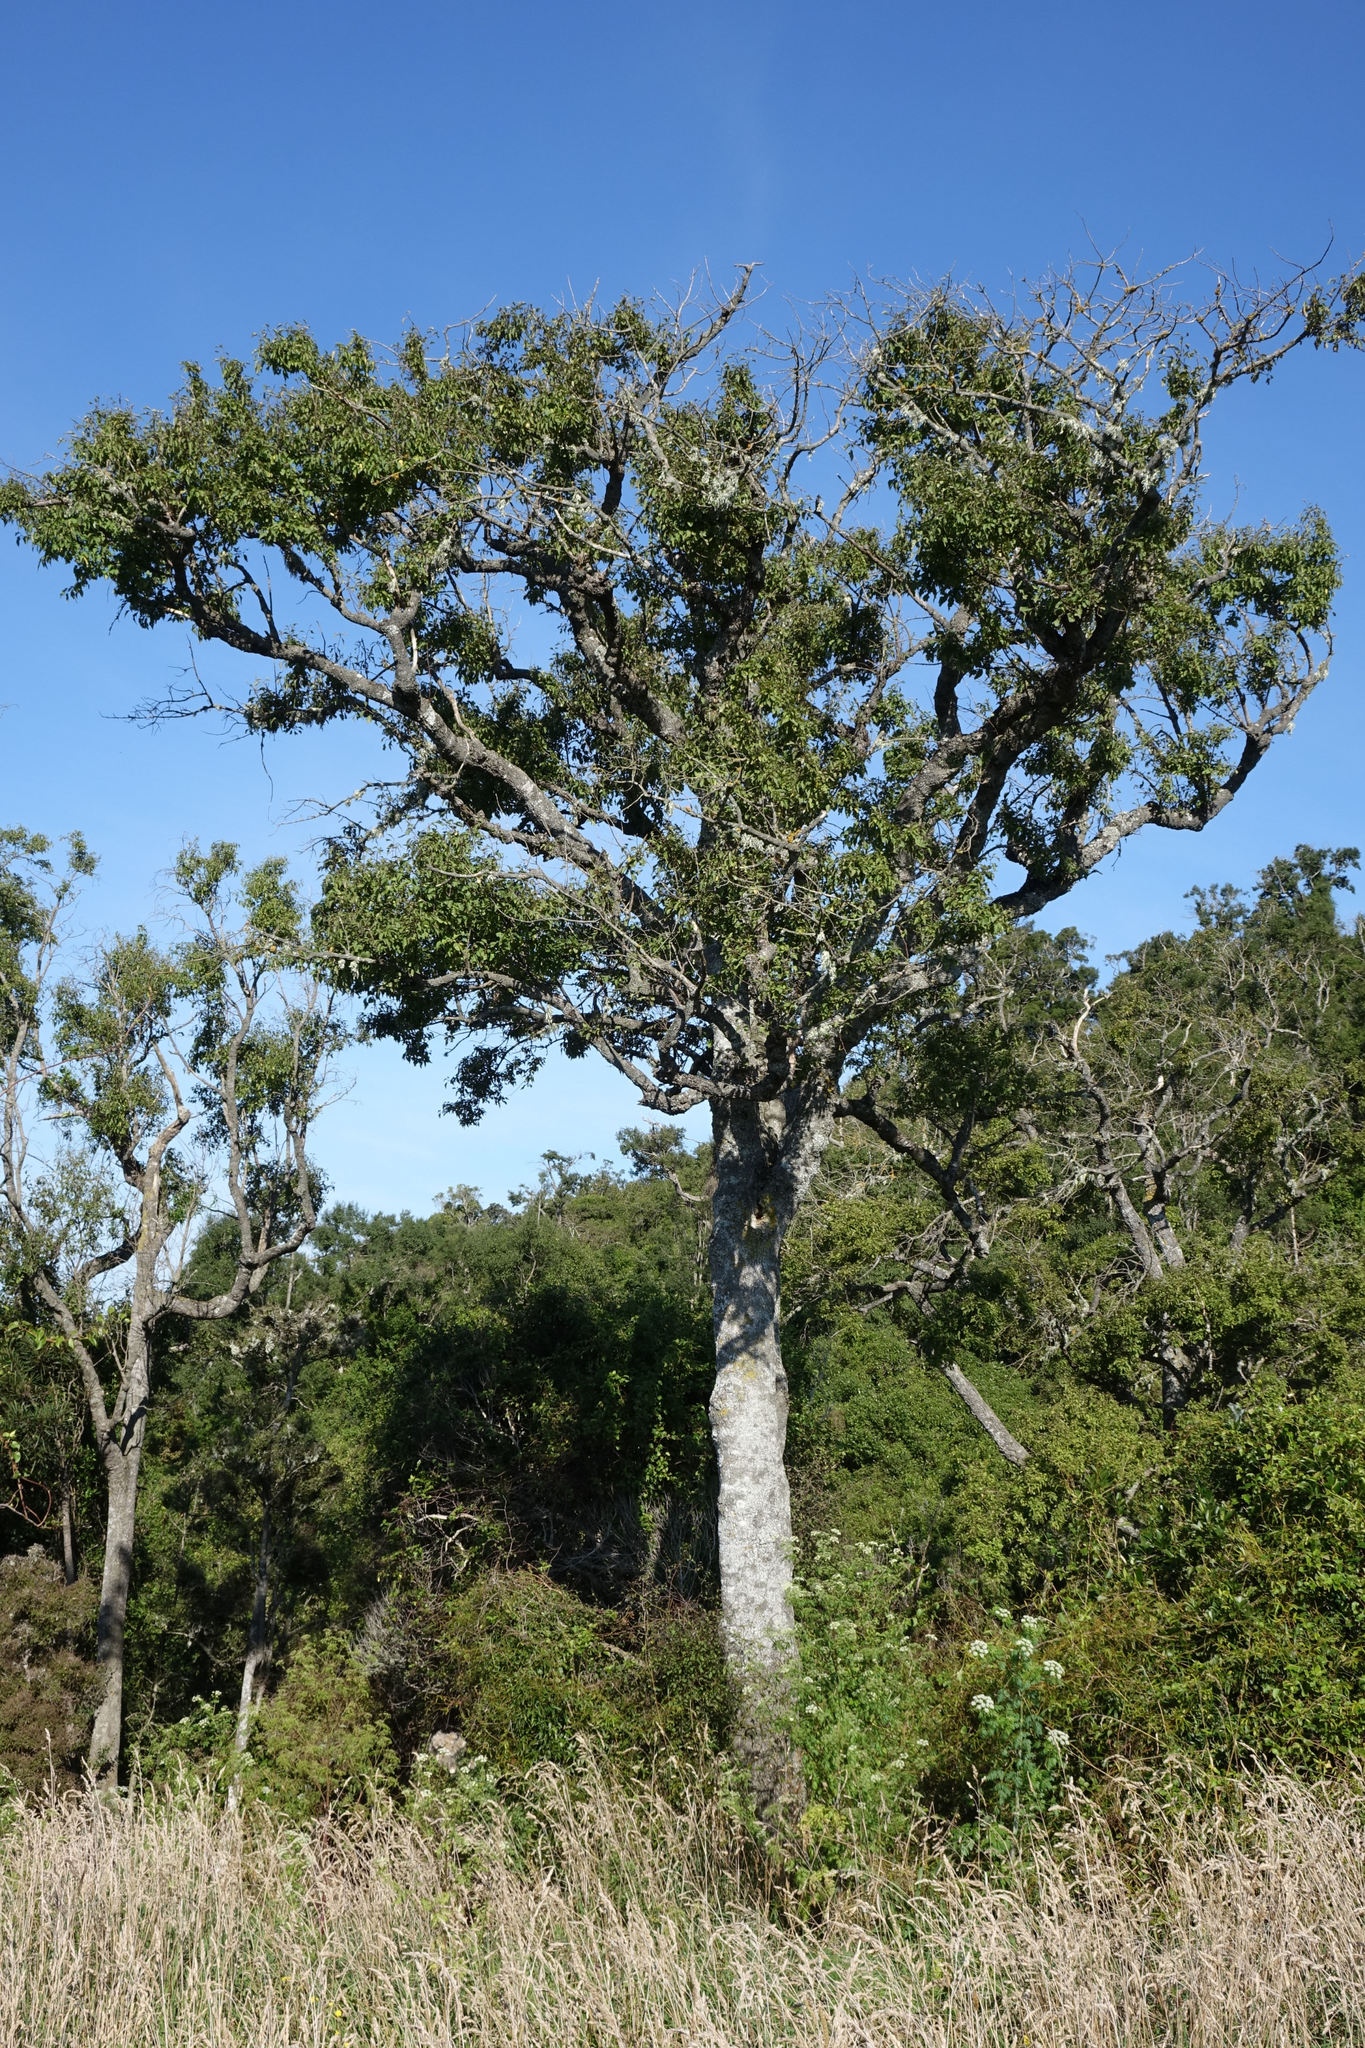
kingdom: Plantae
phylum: Tracheophyta
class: Magnoliopsida
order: Malvales
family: Malvaceae
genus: Plagianthus
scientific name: Plagianthus regius
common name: Manatu
